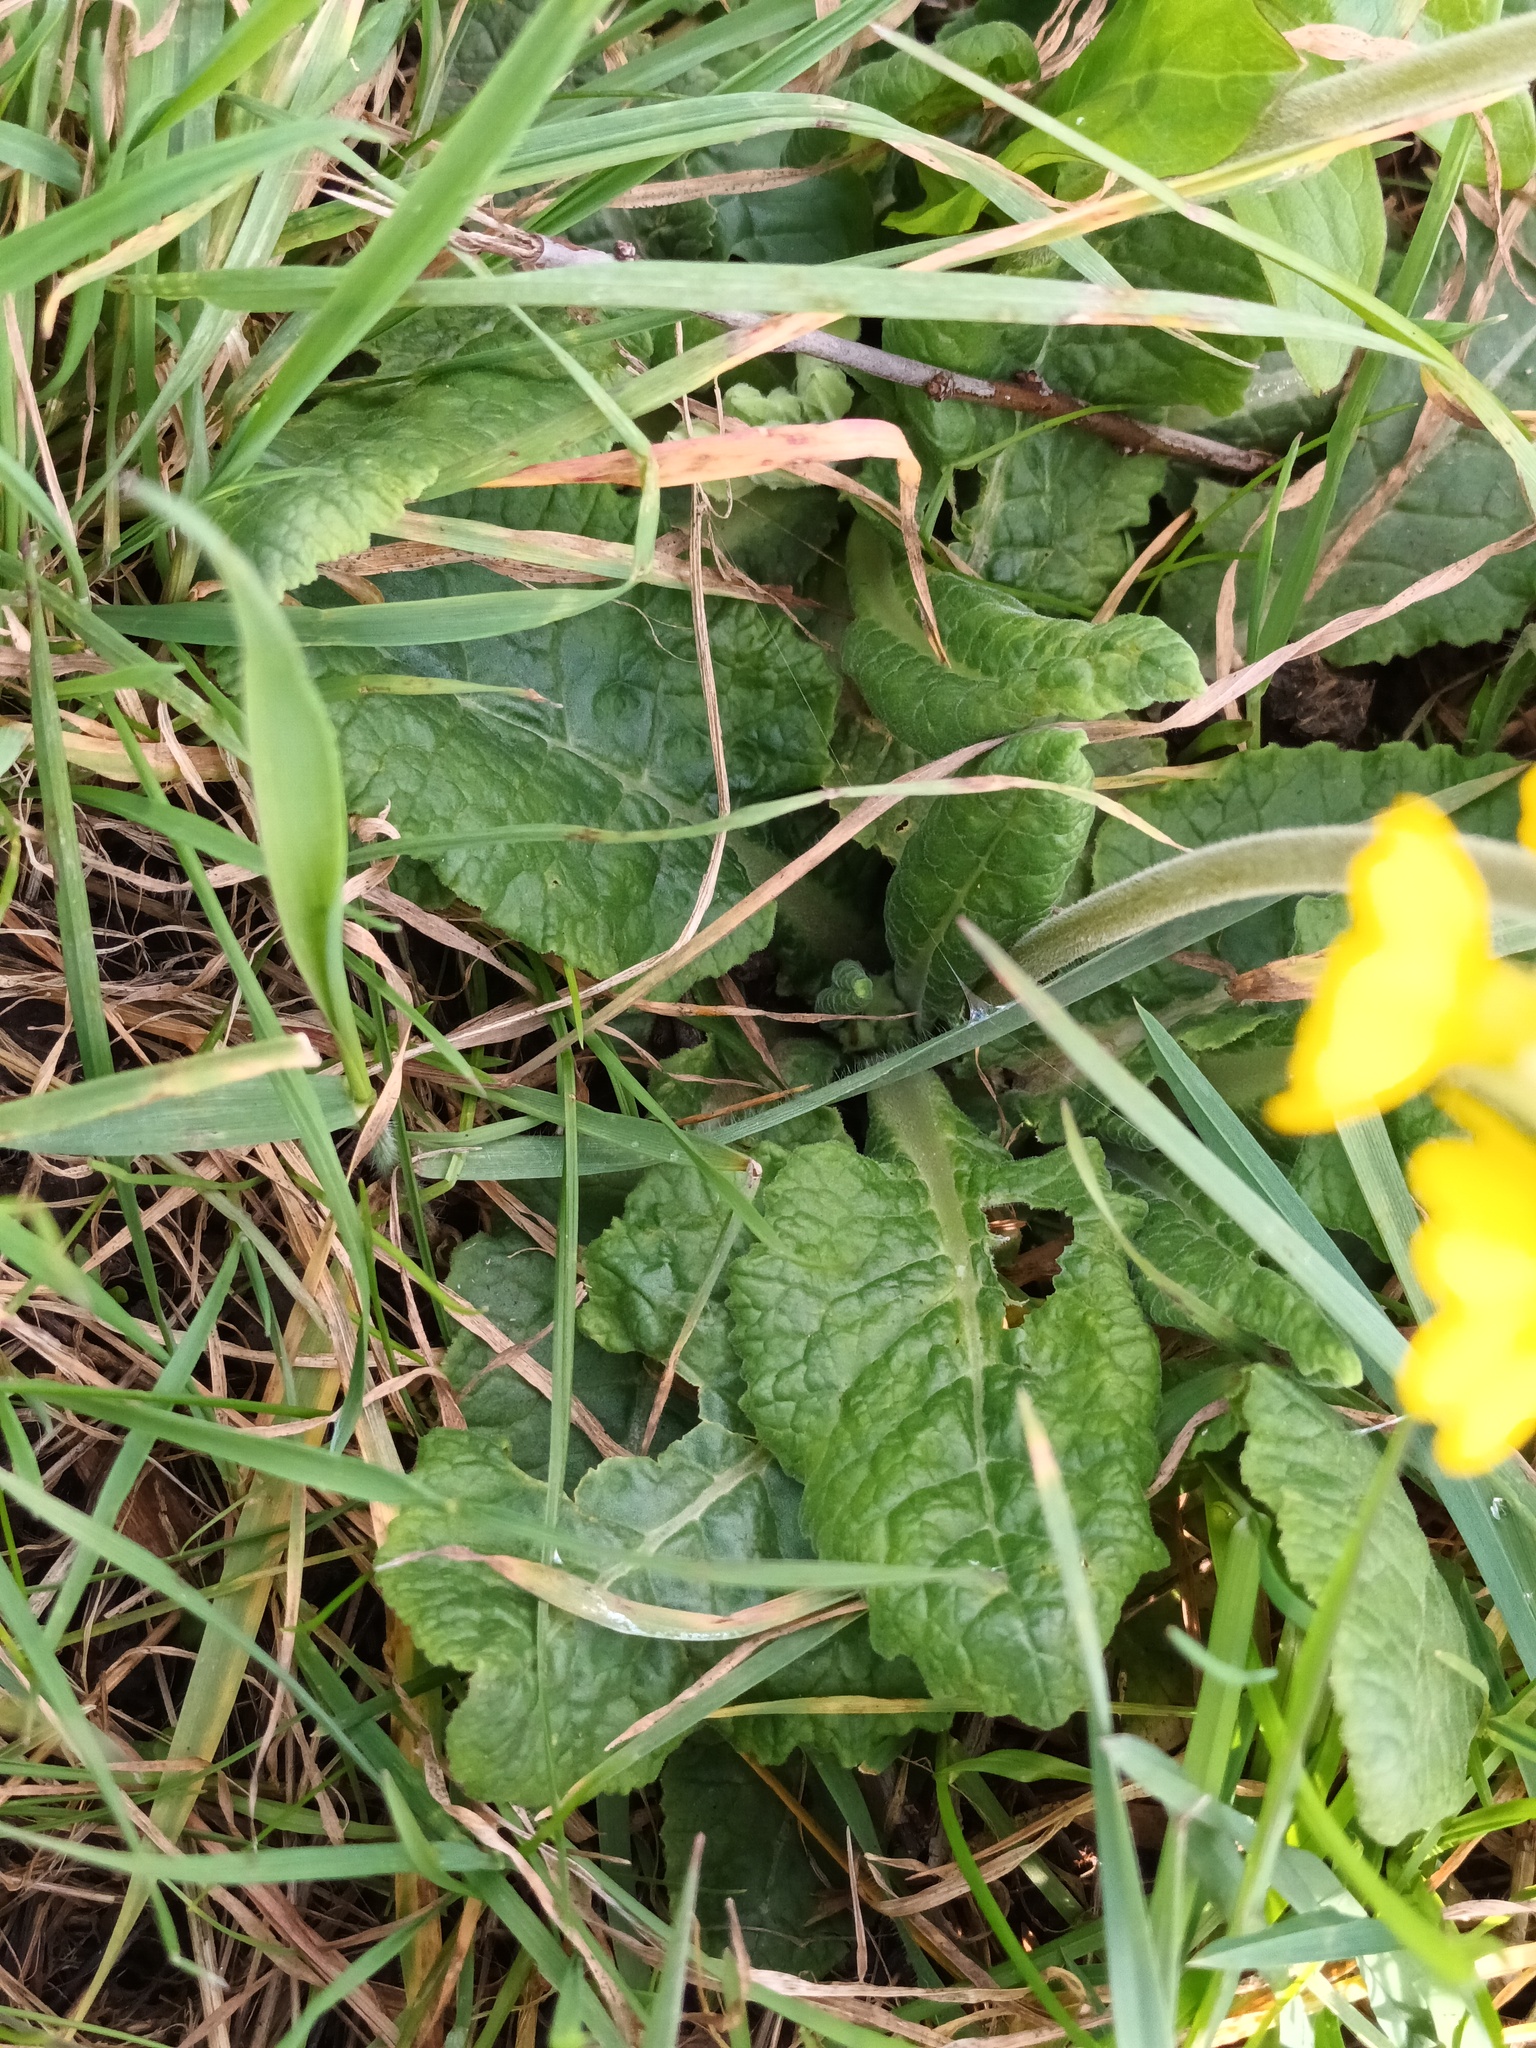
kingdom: Plantae
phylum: Tracheophyta
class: Magnoliopsida
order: Ericales
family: Primulaceae
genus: Primula
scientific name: Primula veris
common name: Cowslip
